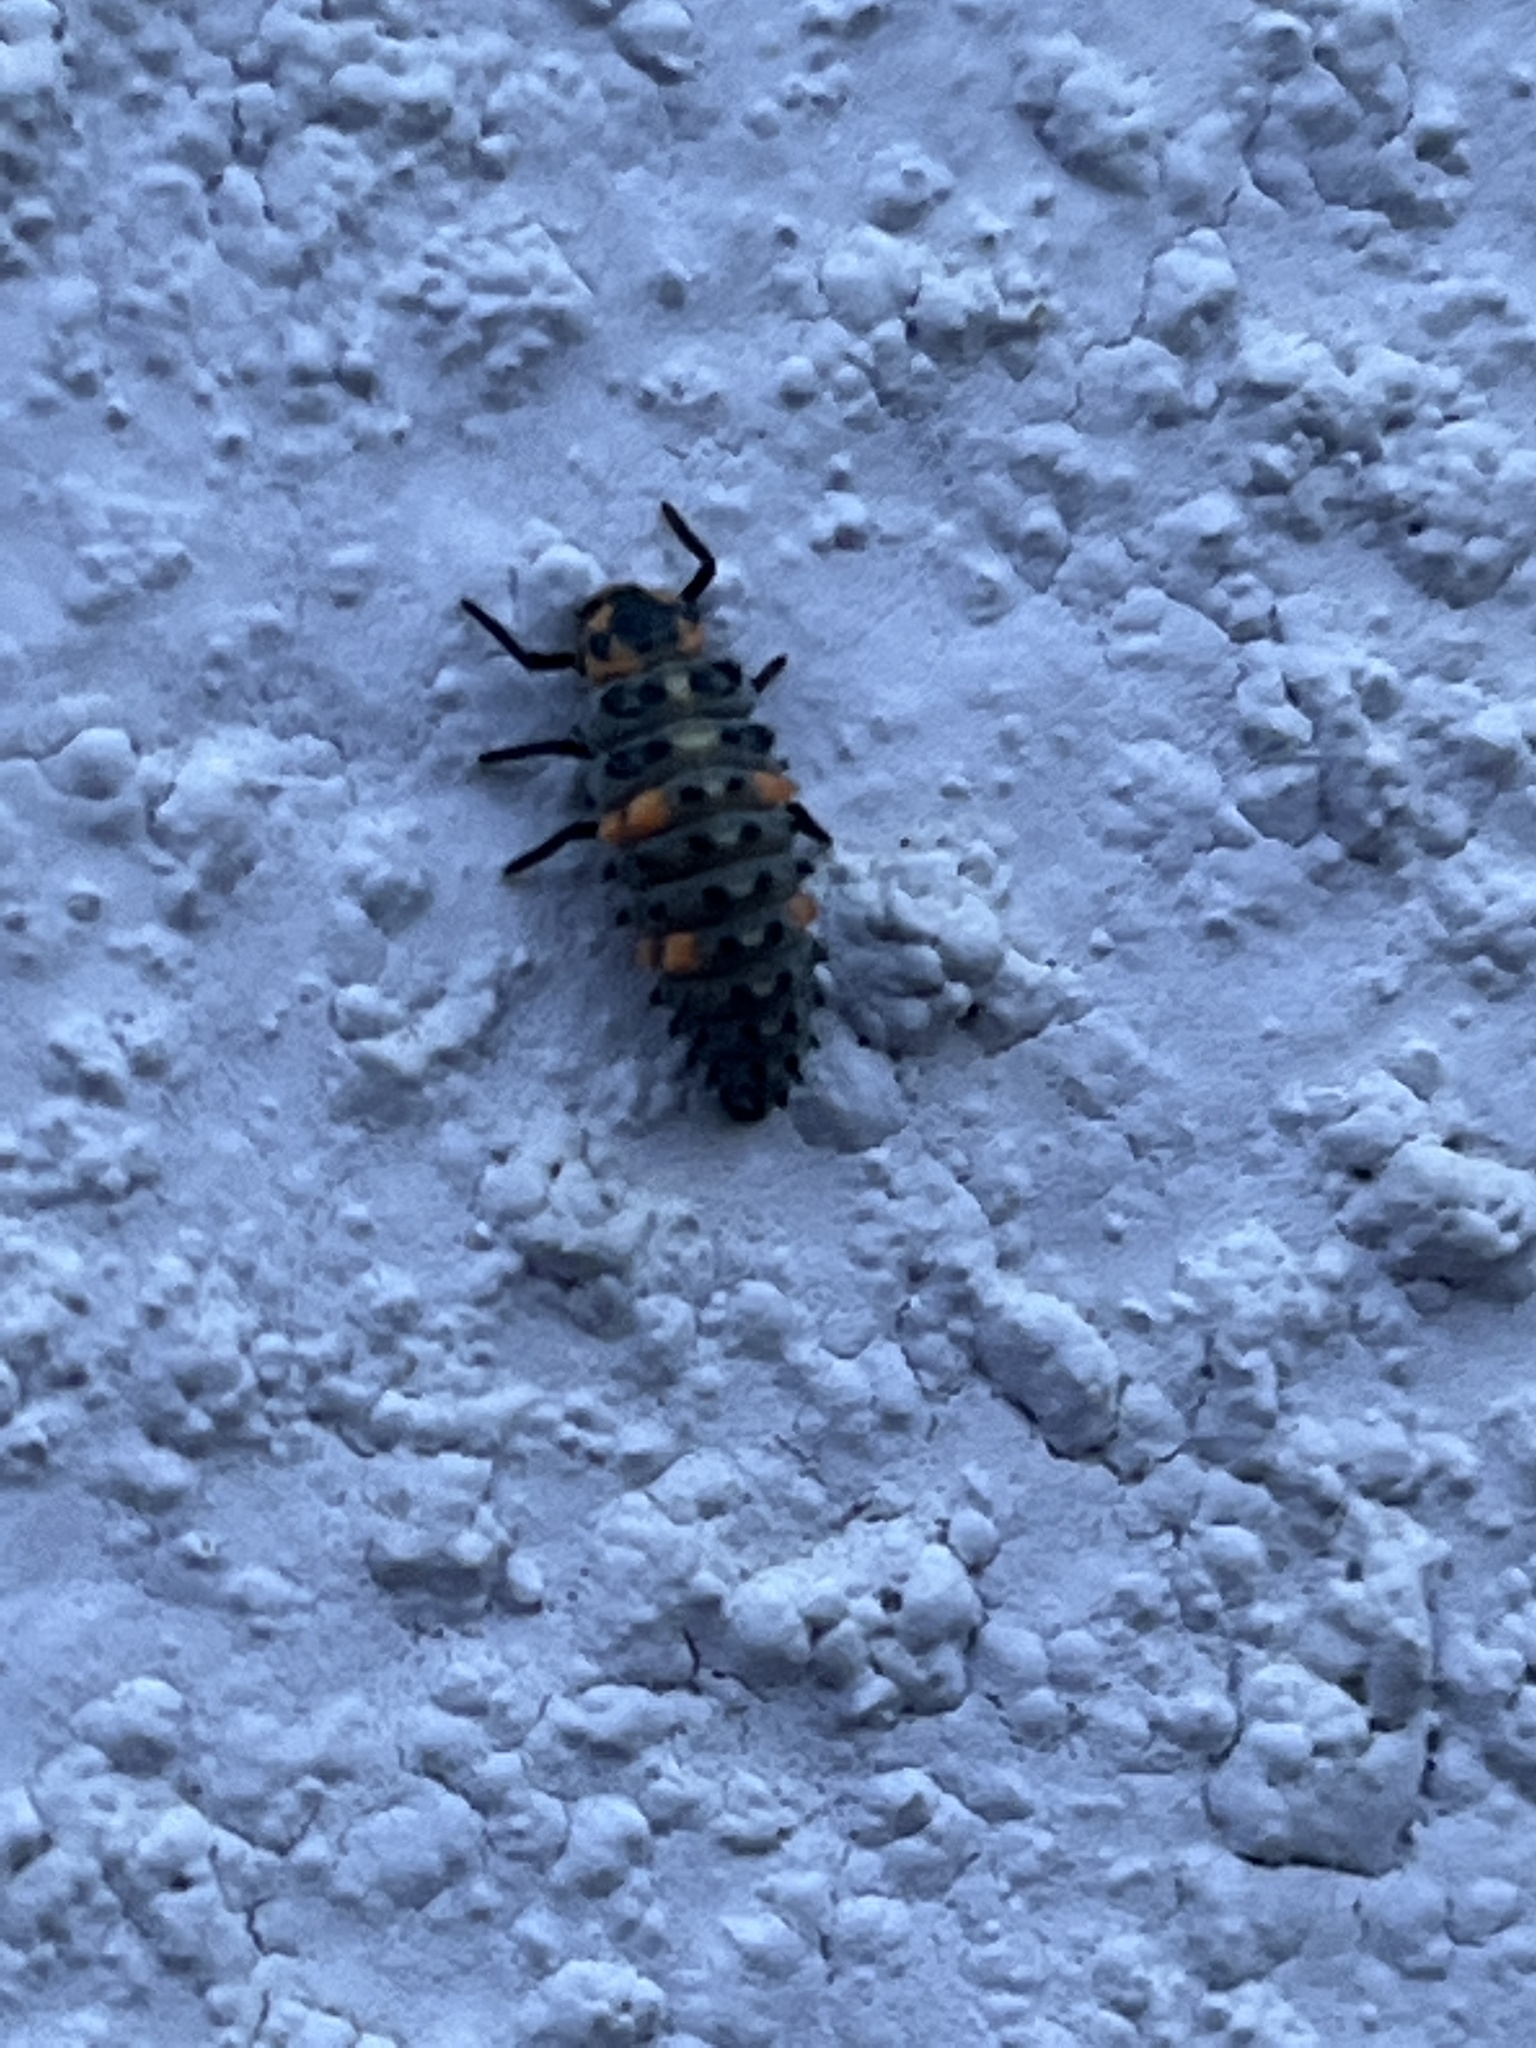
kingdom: Animalia
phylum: Arthropoda
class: Insecta
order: Coleoptera
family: Coccinellidae
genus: Coccinella
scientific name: Coccinella septempunctata
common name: Sevenspotted lady beetle
